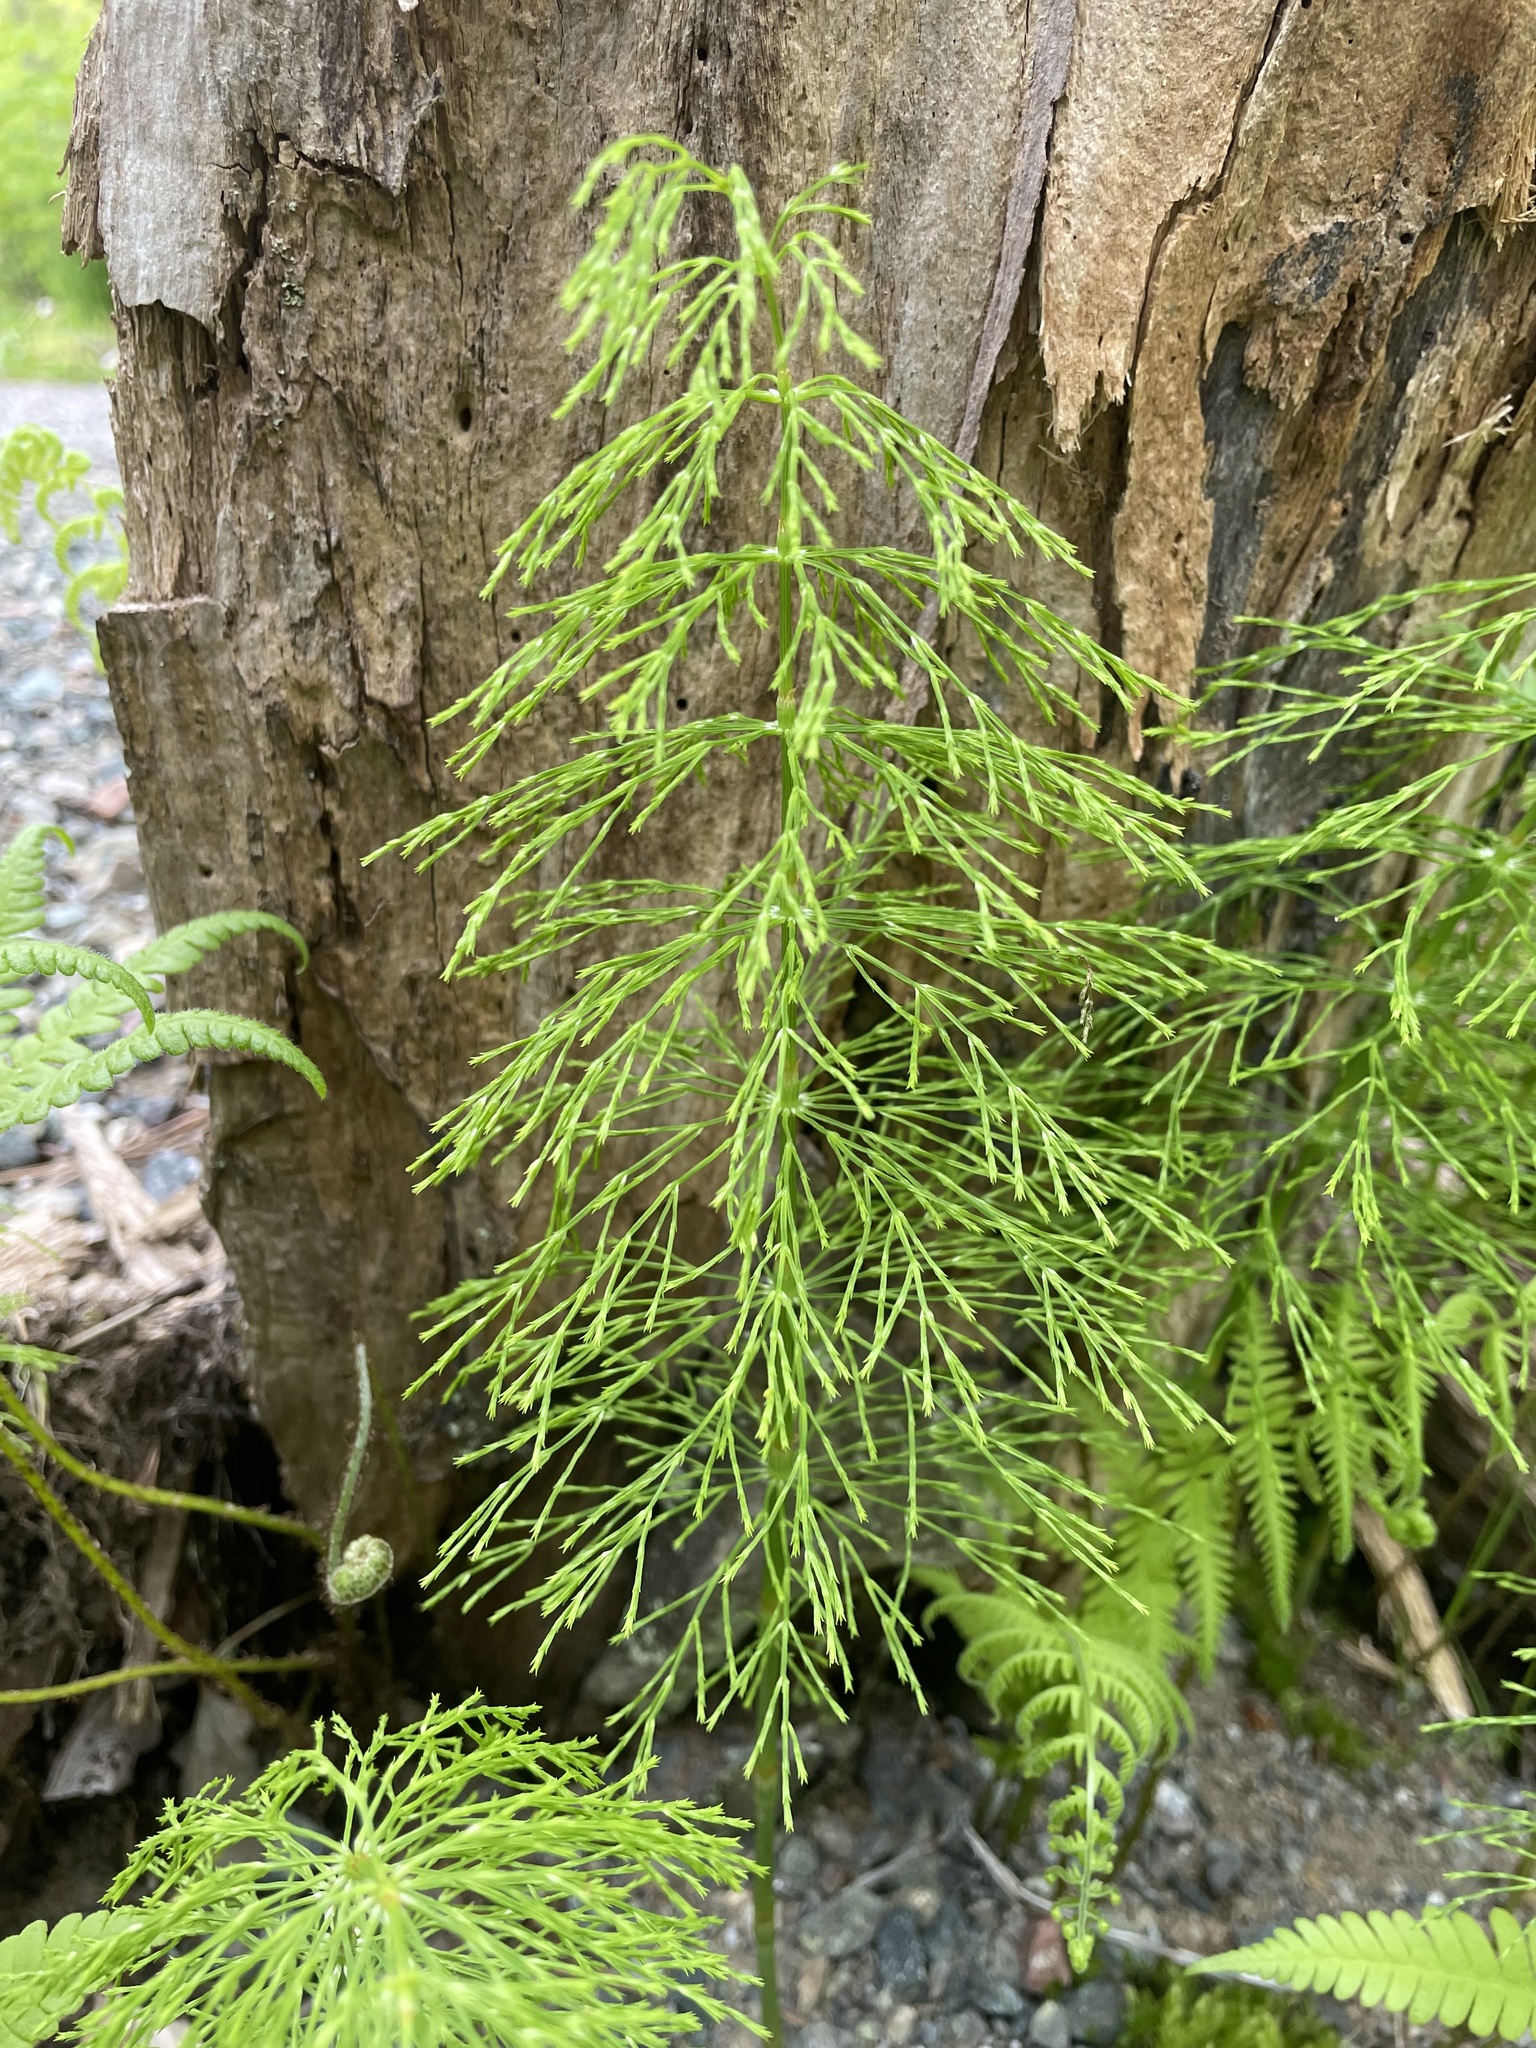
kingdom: Plantae
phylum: Tracheophyta
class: Polypodiopsida
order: Equisetales
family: Equisetaceae
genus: Equisetum
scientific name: Equisetum sylvaticum
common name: Wood horsetail
